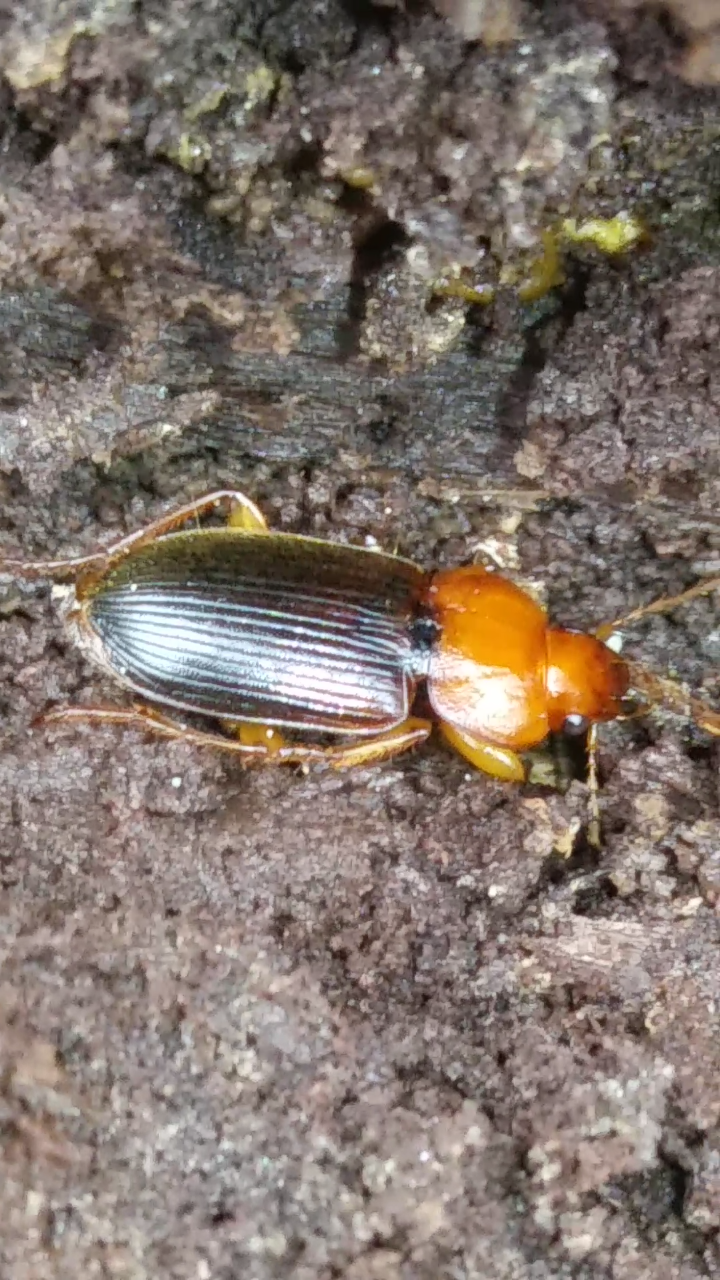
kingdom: Animalia
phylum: Arthropoda
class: Insecta
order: Coleoptera
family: Carabidae
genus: Amphasia
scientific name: Amphasia interstitialis
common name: Red-headed ground beetle
